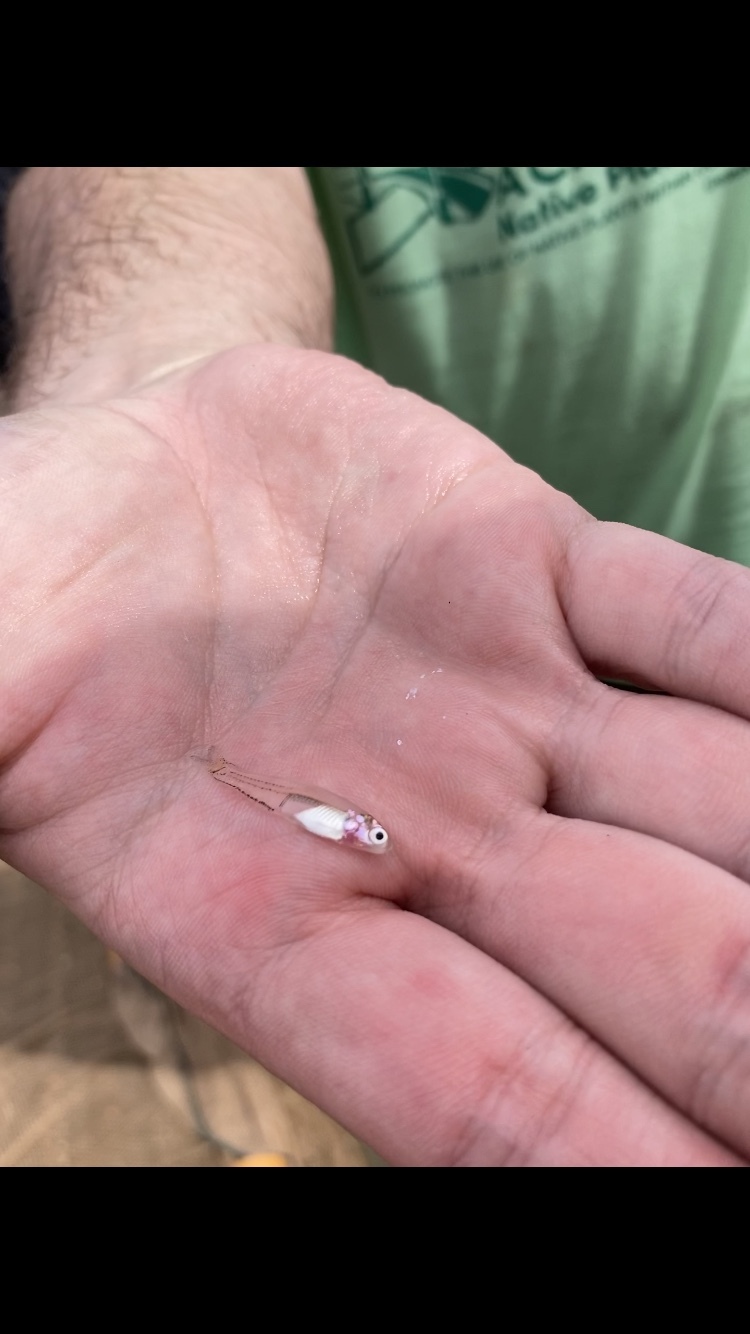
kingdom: Animalia
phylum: Chordata
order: Clupeiformes
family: Engraulidae
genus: Anchoa
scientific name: Anchoa mitchilli
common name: Bay anchovy
